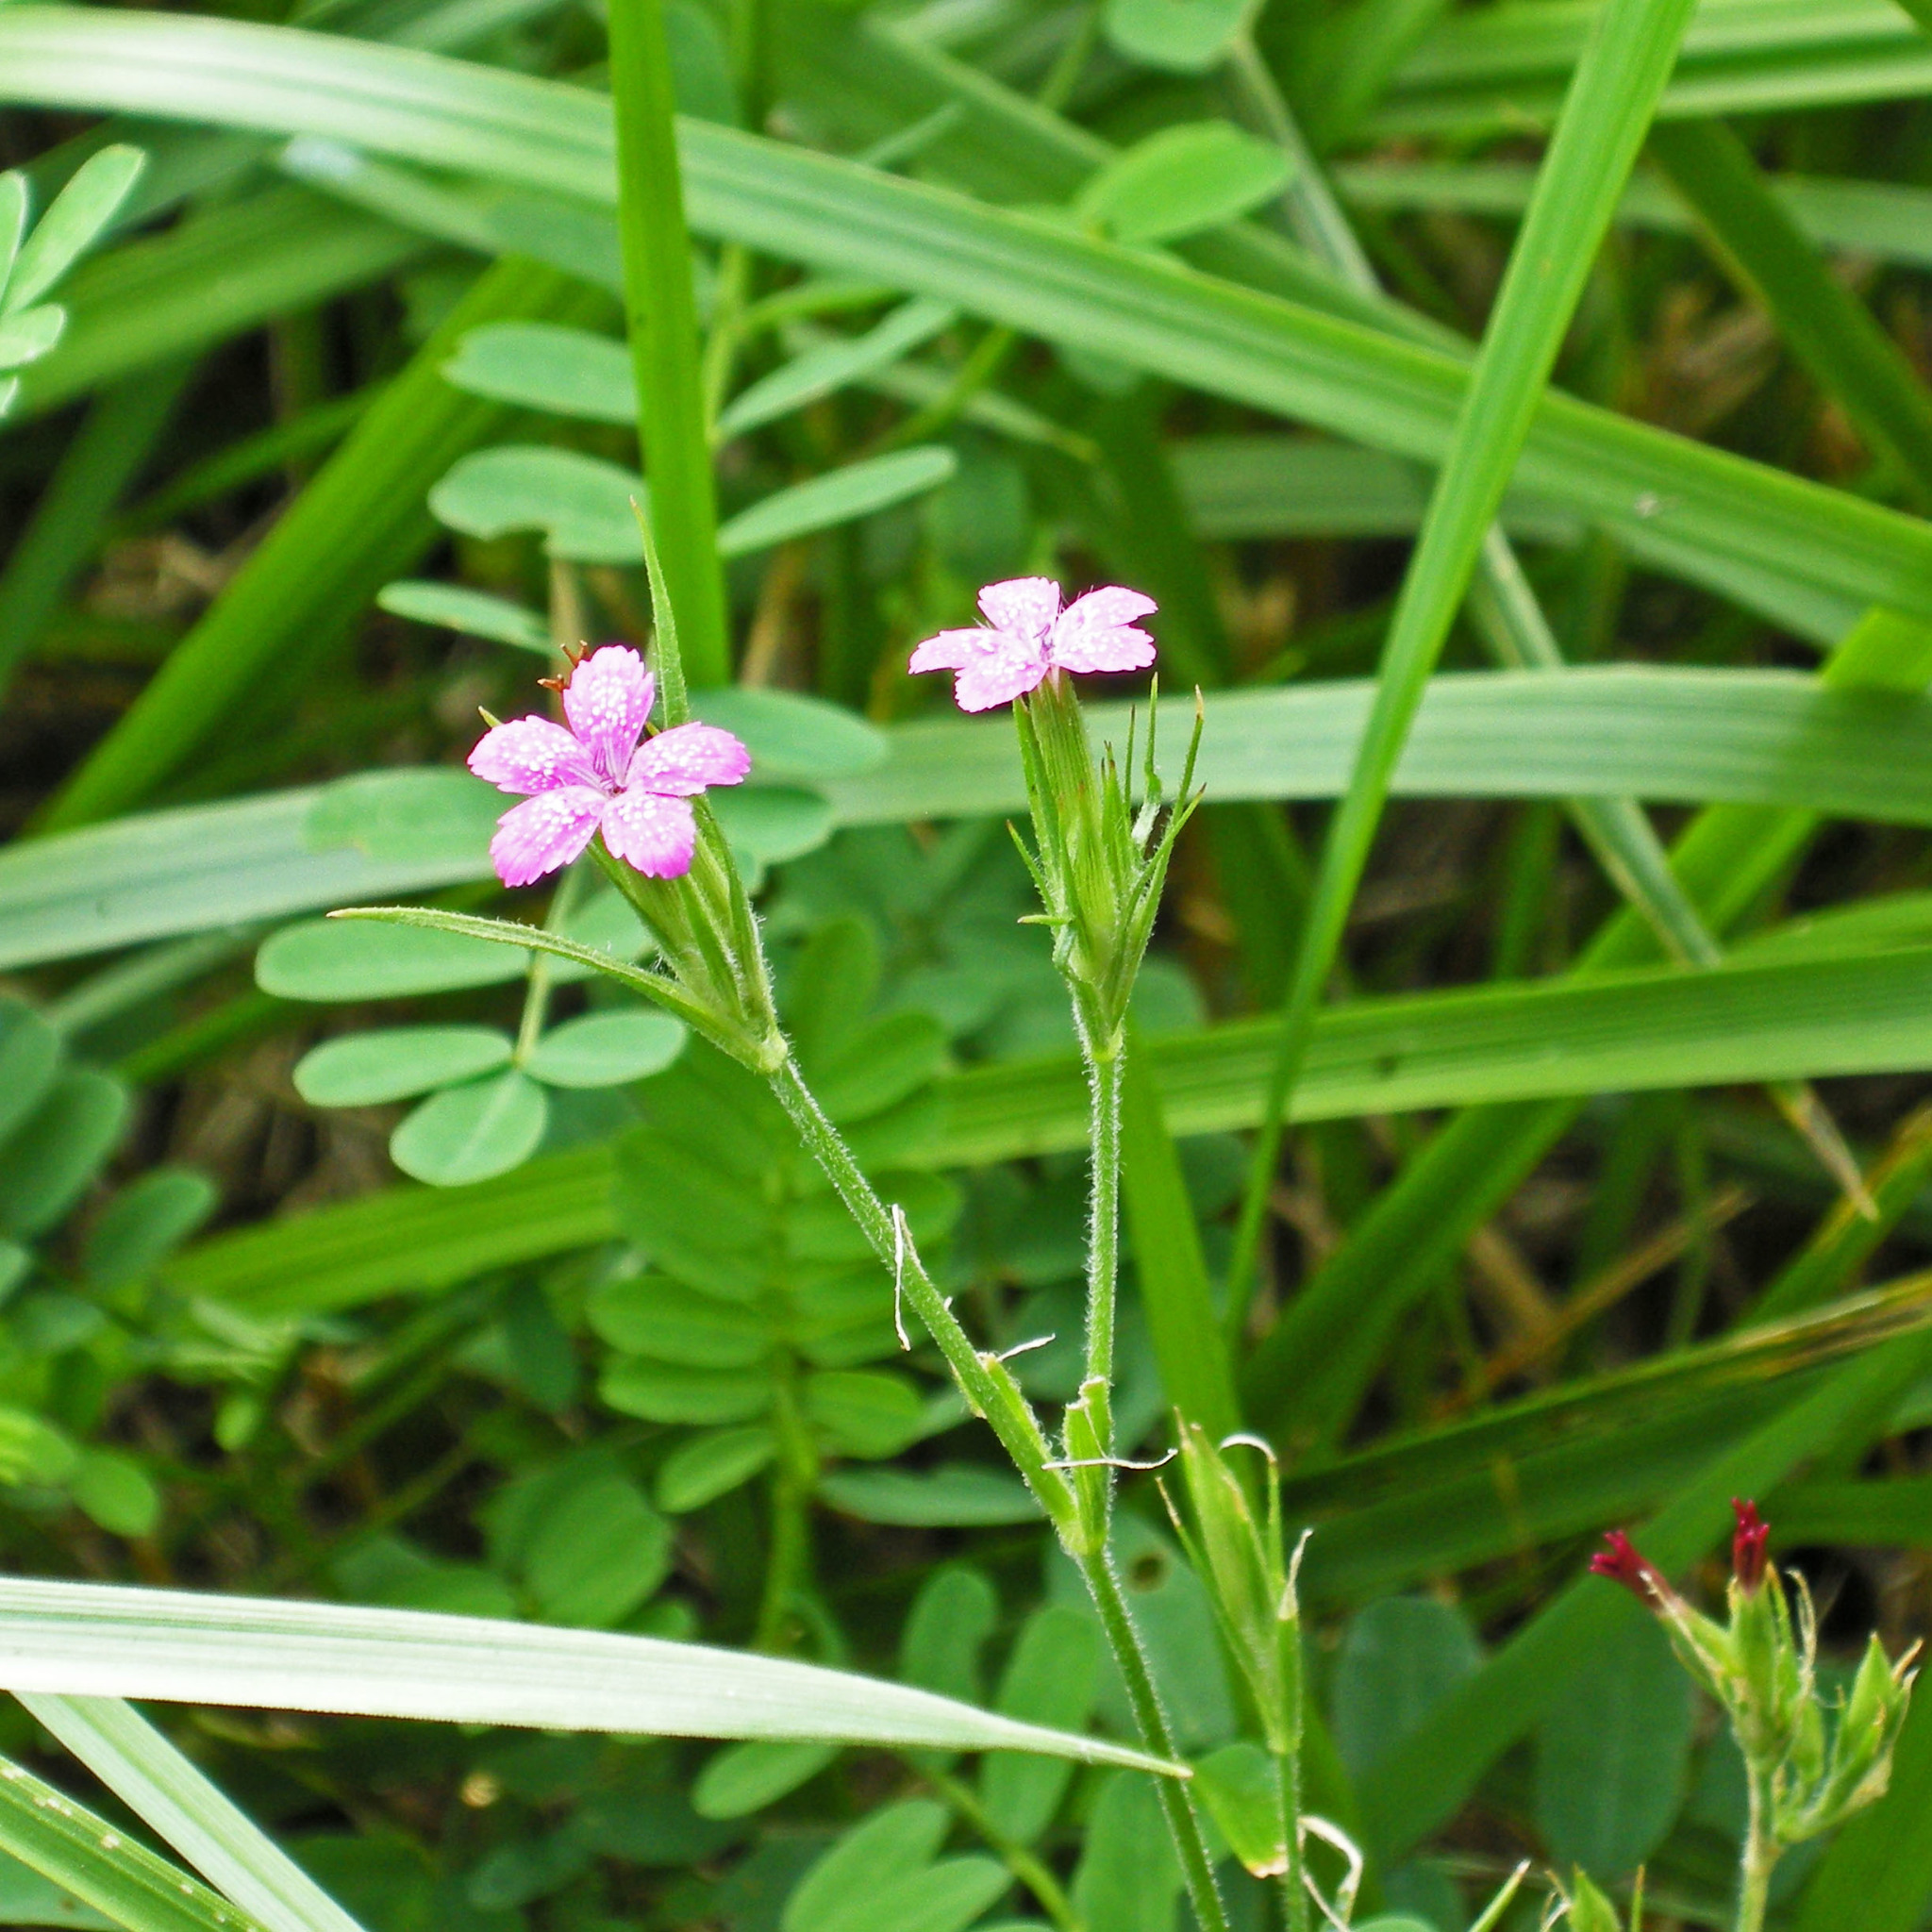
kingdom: Plantae
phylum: Tracheophyta
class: Magnoliopsida
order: Caryophyllales
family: Caryophyllaceae
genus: Dianthus
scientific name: Dianthus armeria
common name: Deptford pink
